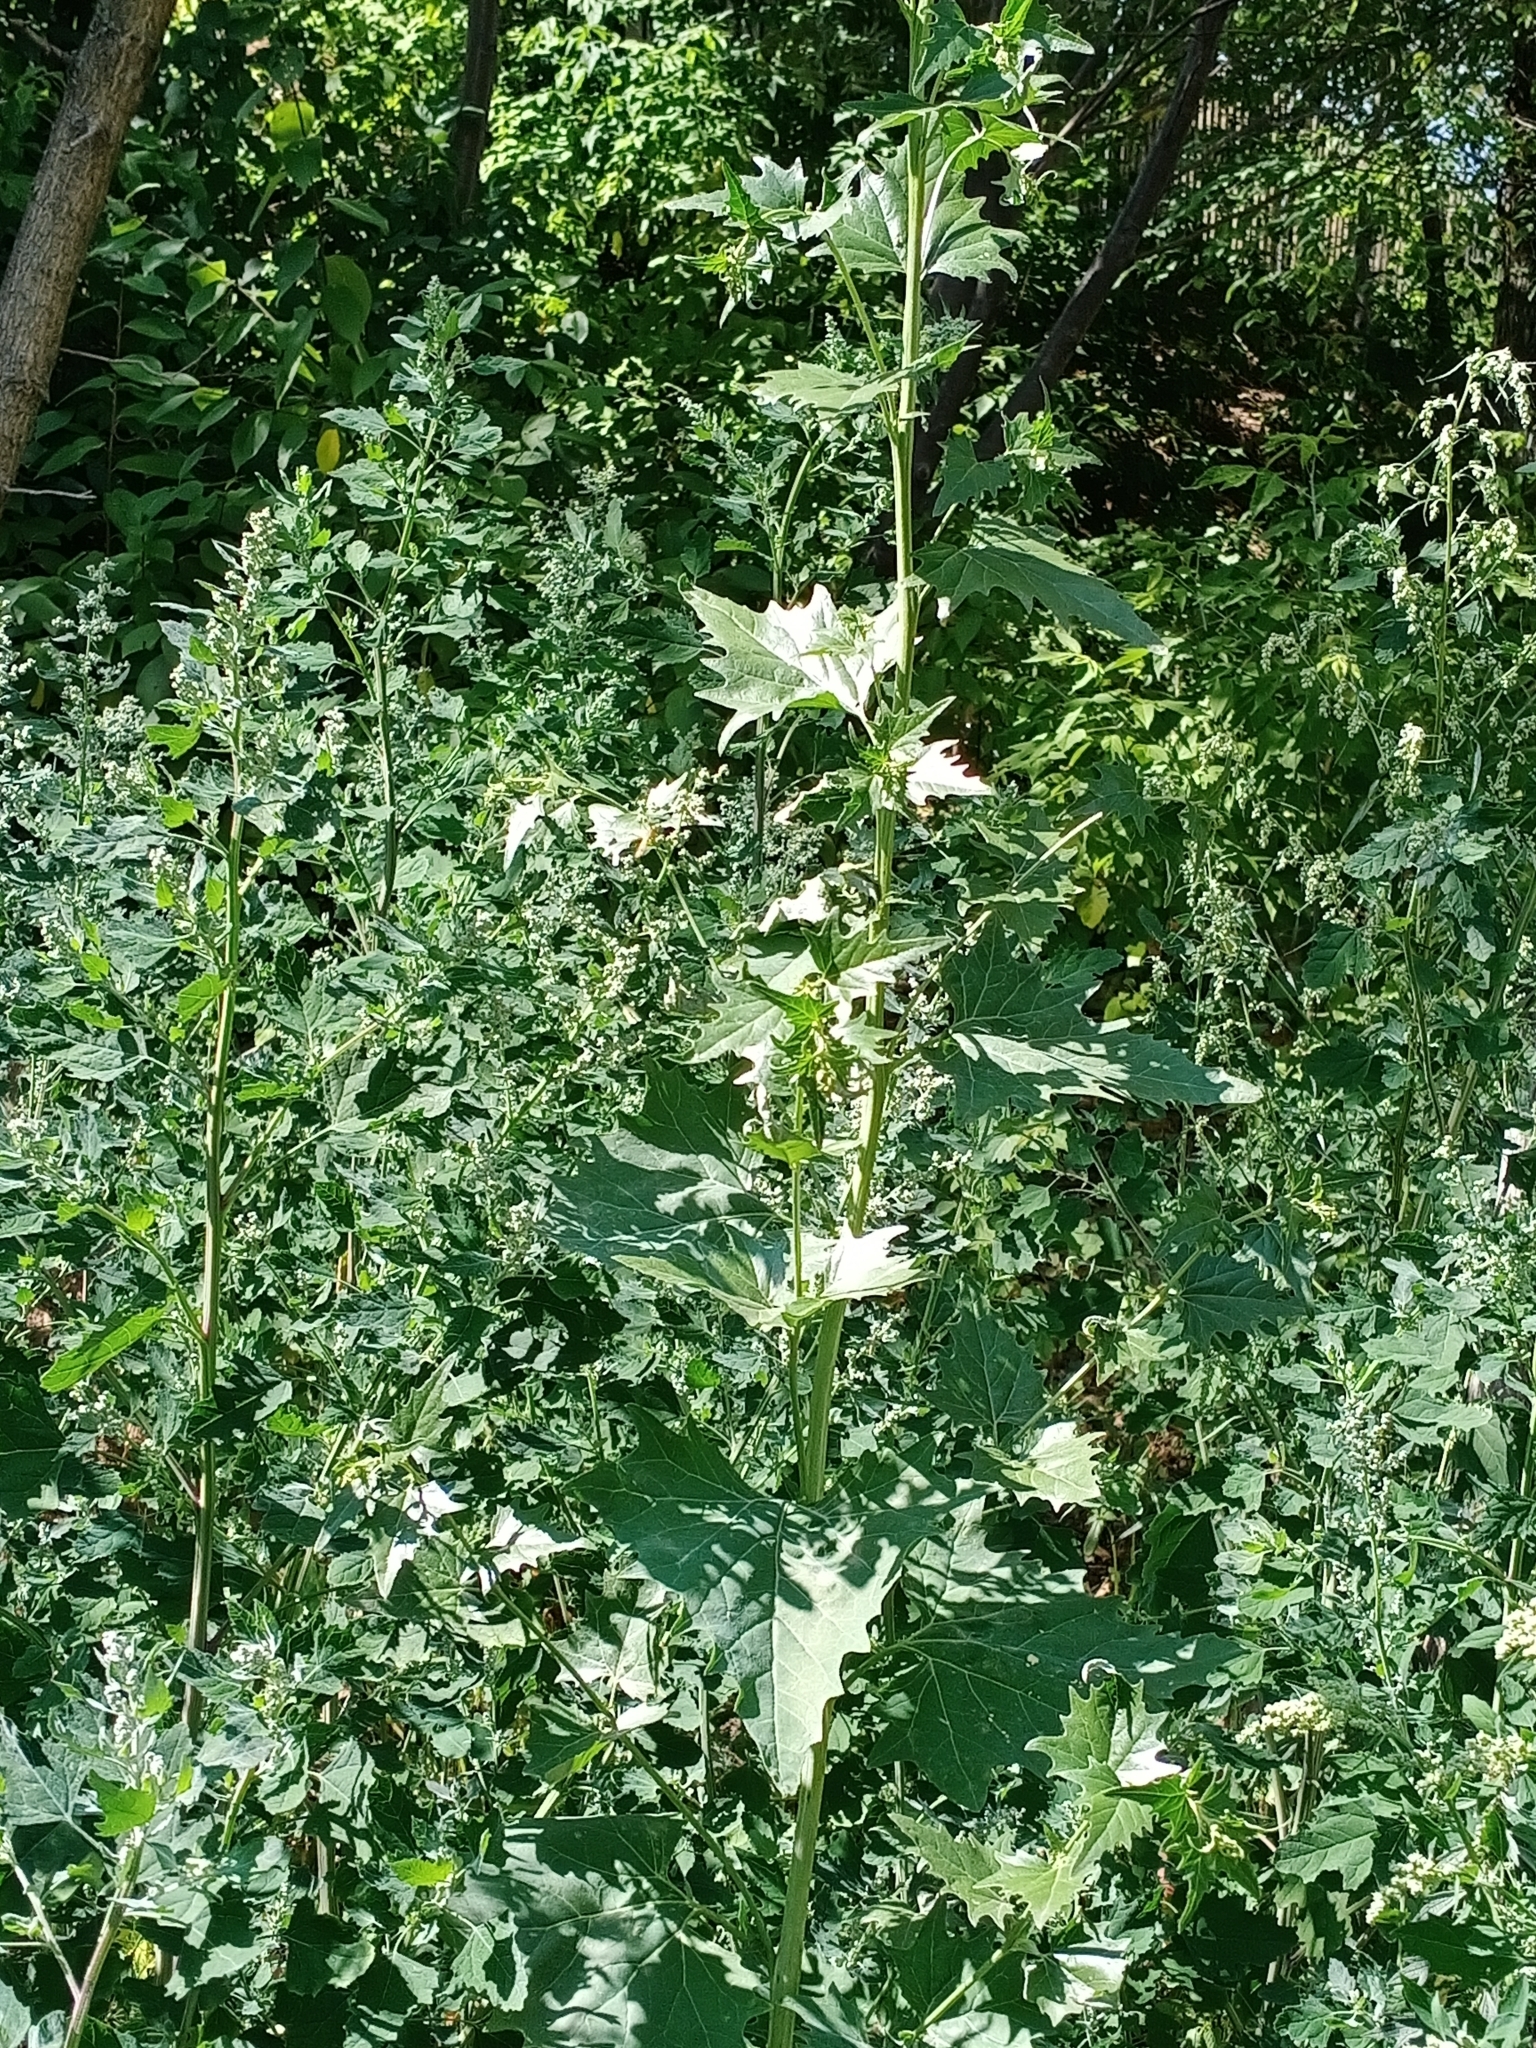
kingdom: Plantae
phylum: Tracheophyta
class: Magnoliopsida
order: Caryophyllales
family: Amaranthaceae
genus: Atriplex
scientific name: Atriplex sagittata
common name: Purple orache
